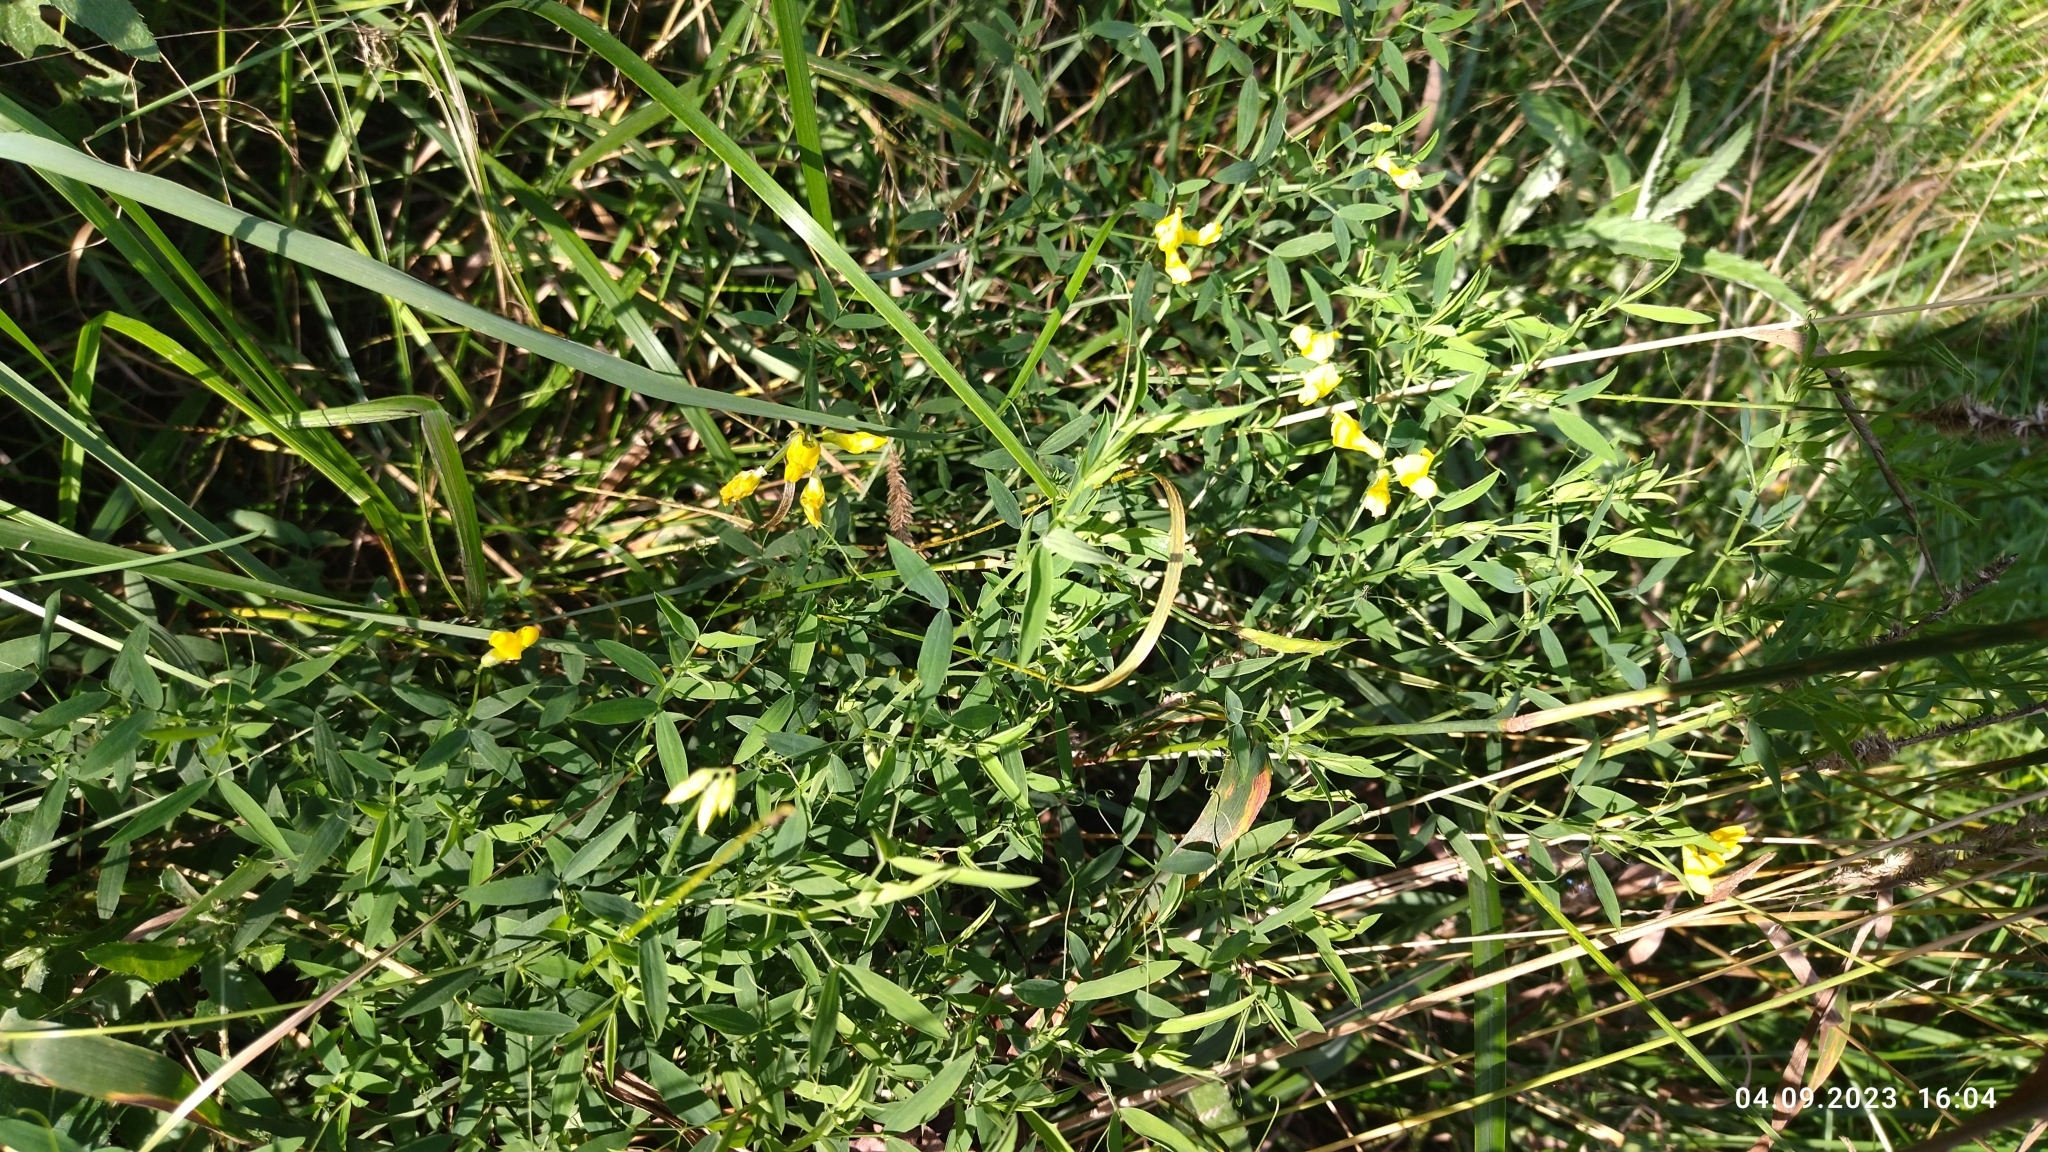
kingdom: Plantae
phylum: Tracheophyta
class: Magnoliopsida
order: Fabales
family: Fabaceae
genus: Lathyrus
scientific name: Lathyrus pratensis
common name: Meadow vetchling
